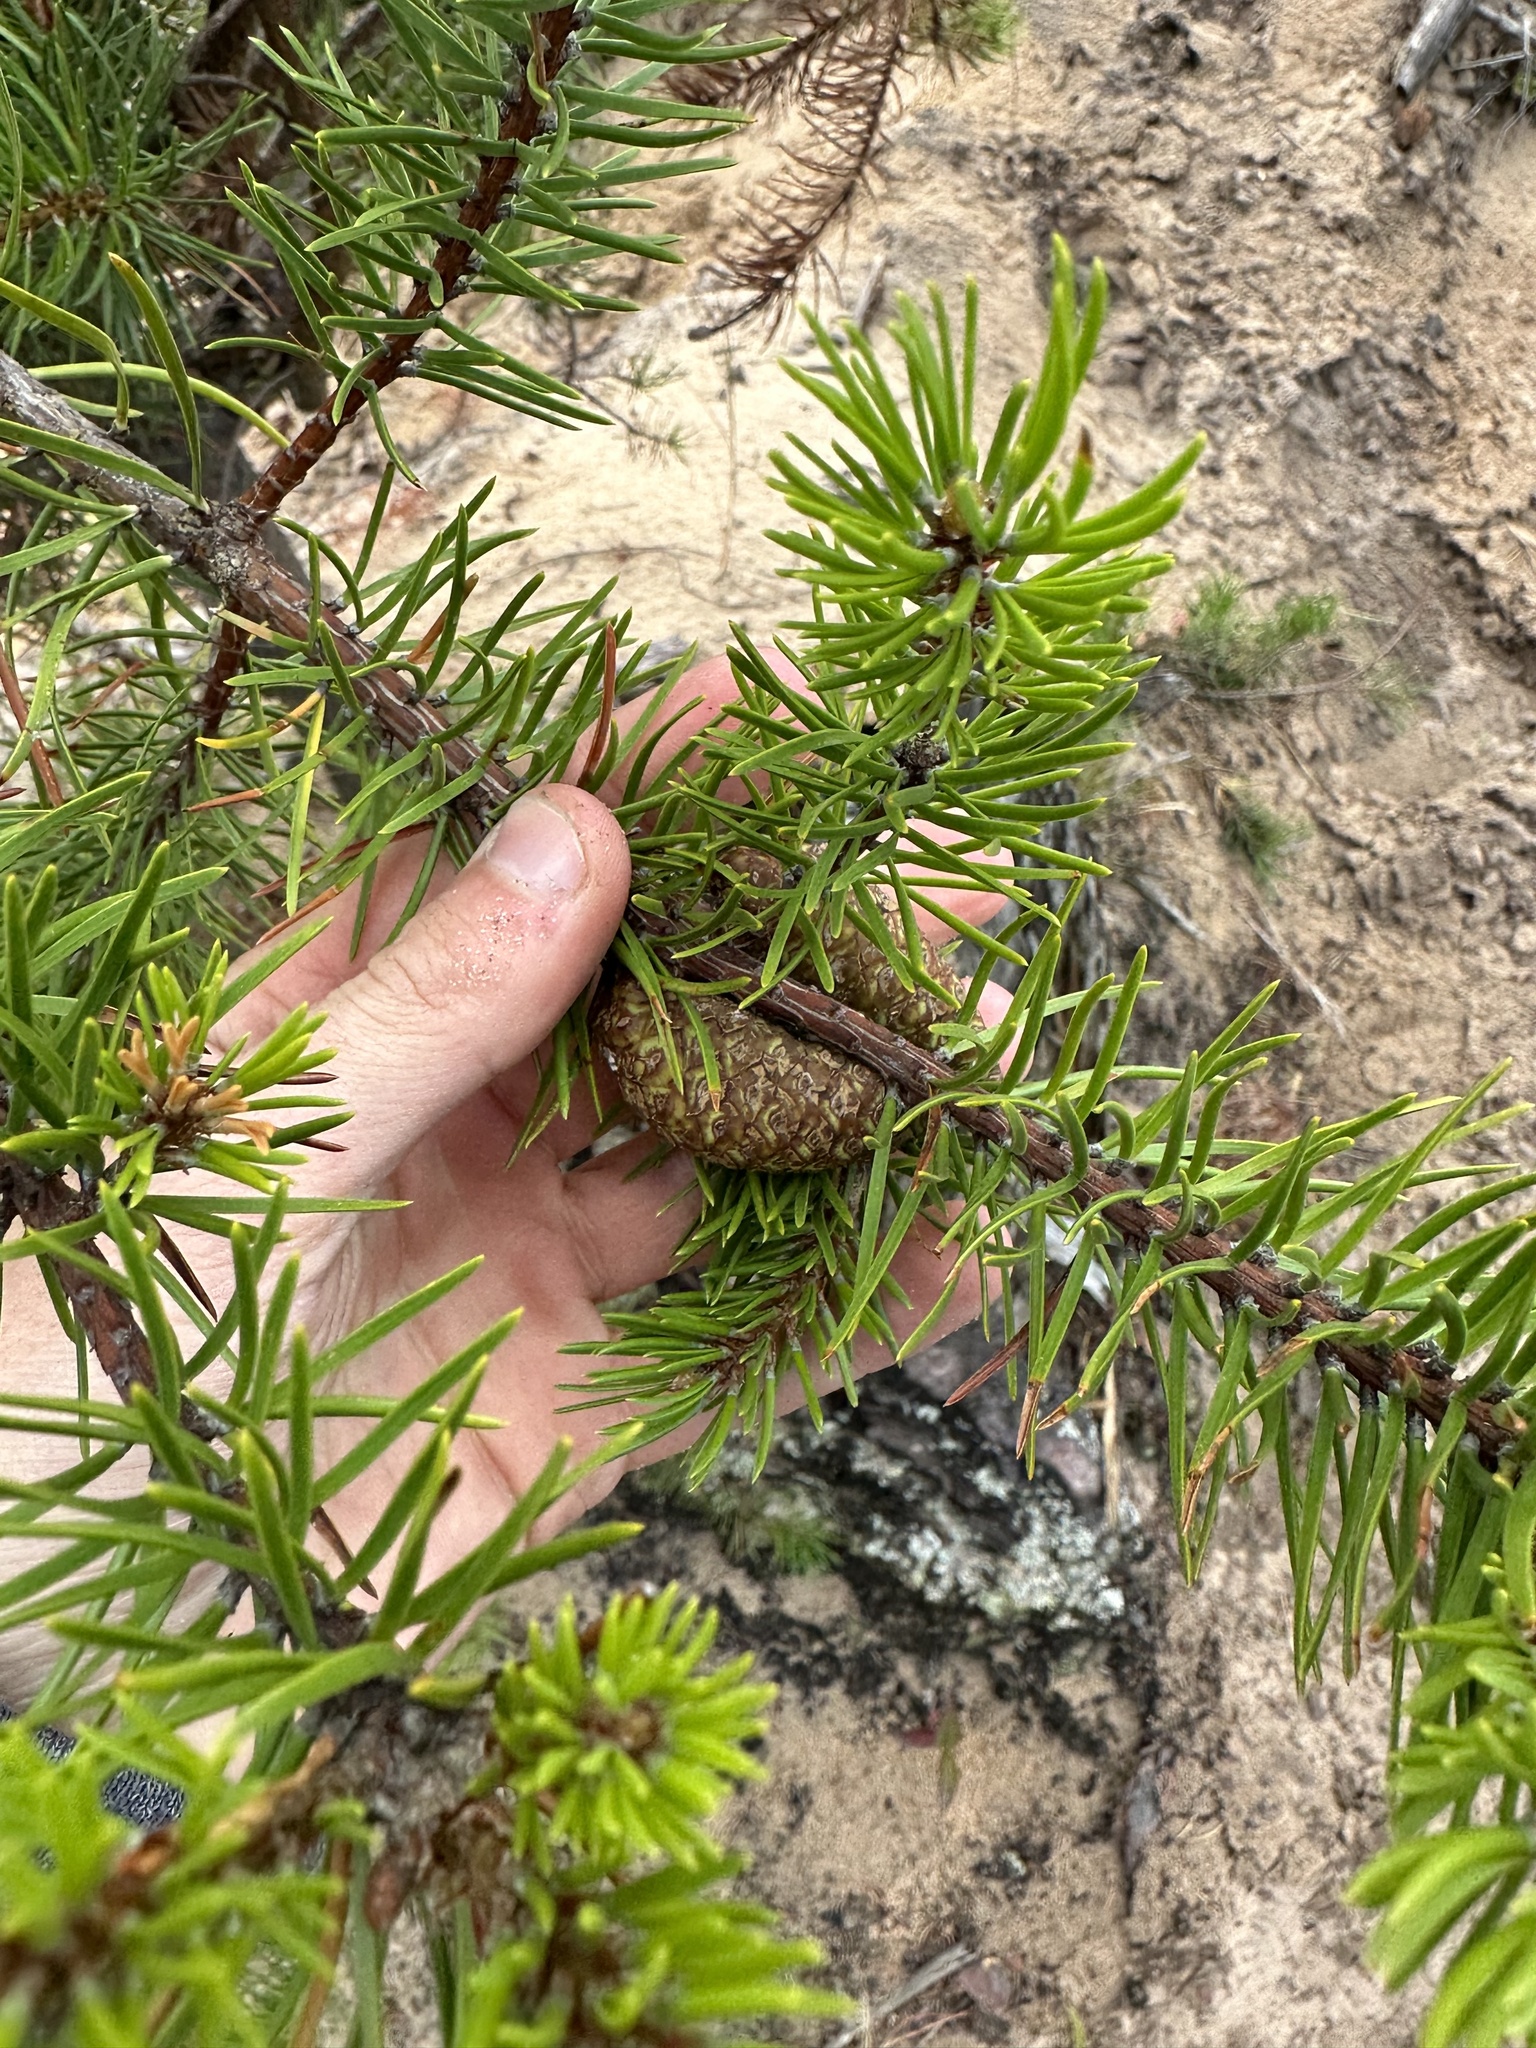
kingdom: Plantae
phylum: Tracheophyta
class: Pinopsida
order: Pinales
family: Pinaceae
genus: Pinus
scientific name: Pinus banksiana
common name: Jack pine
